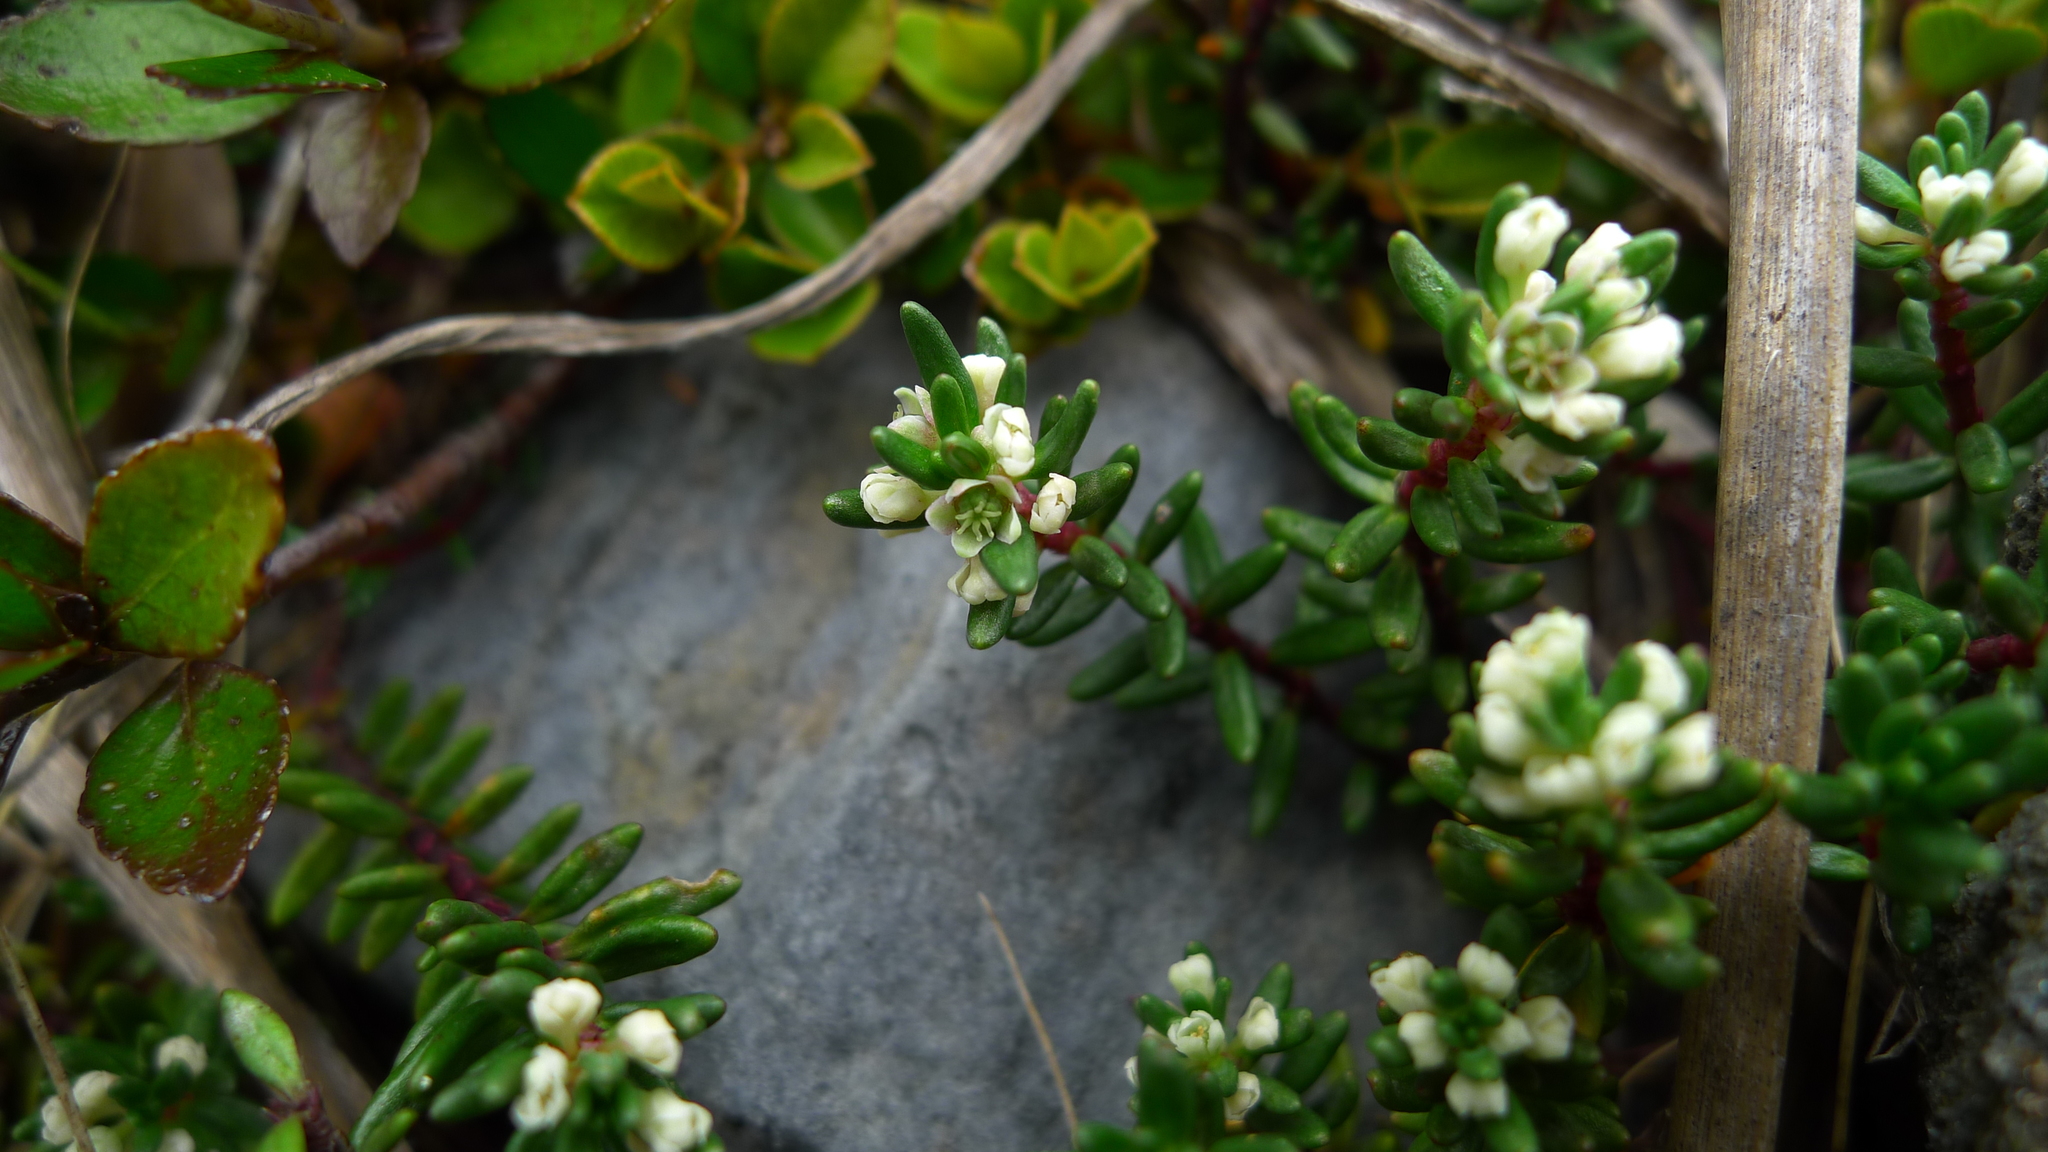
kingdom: Plantae
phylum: Tracheophyta
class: Magnoliopsida
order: Malpighiales
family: Phyllanthaceae
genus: Poranthera
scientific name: Poranthera alpina
